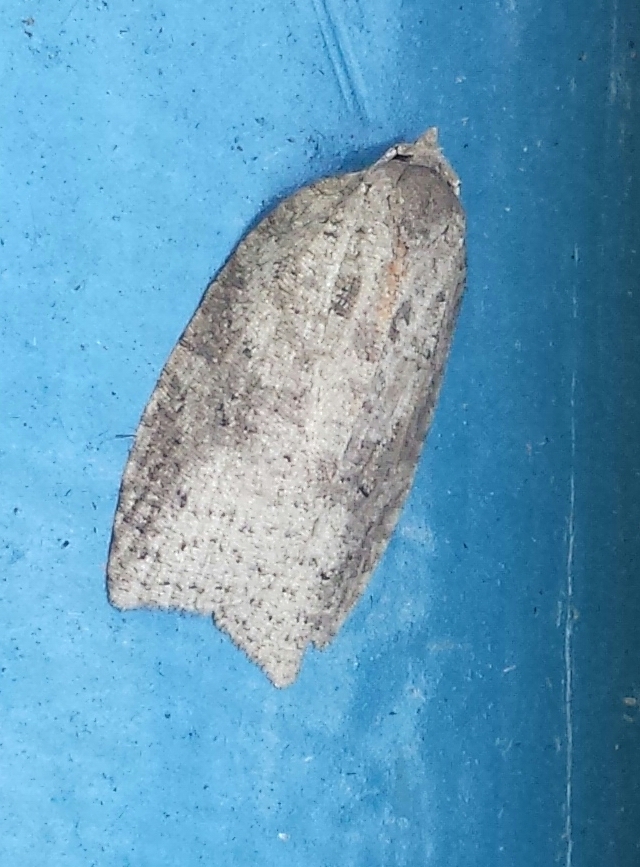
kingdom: Animalia
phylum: Arthropoda
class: Insecta
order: Lepidoptera
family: Tortricidae
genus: Amorbia
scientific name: Amorbia humerosana
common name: White-lined leafroller moth
